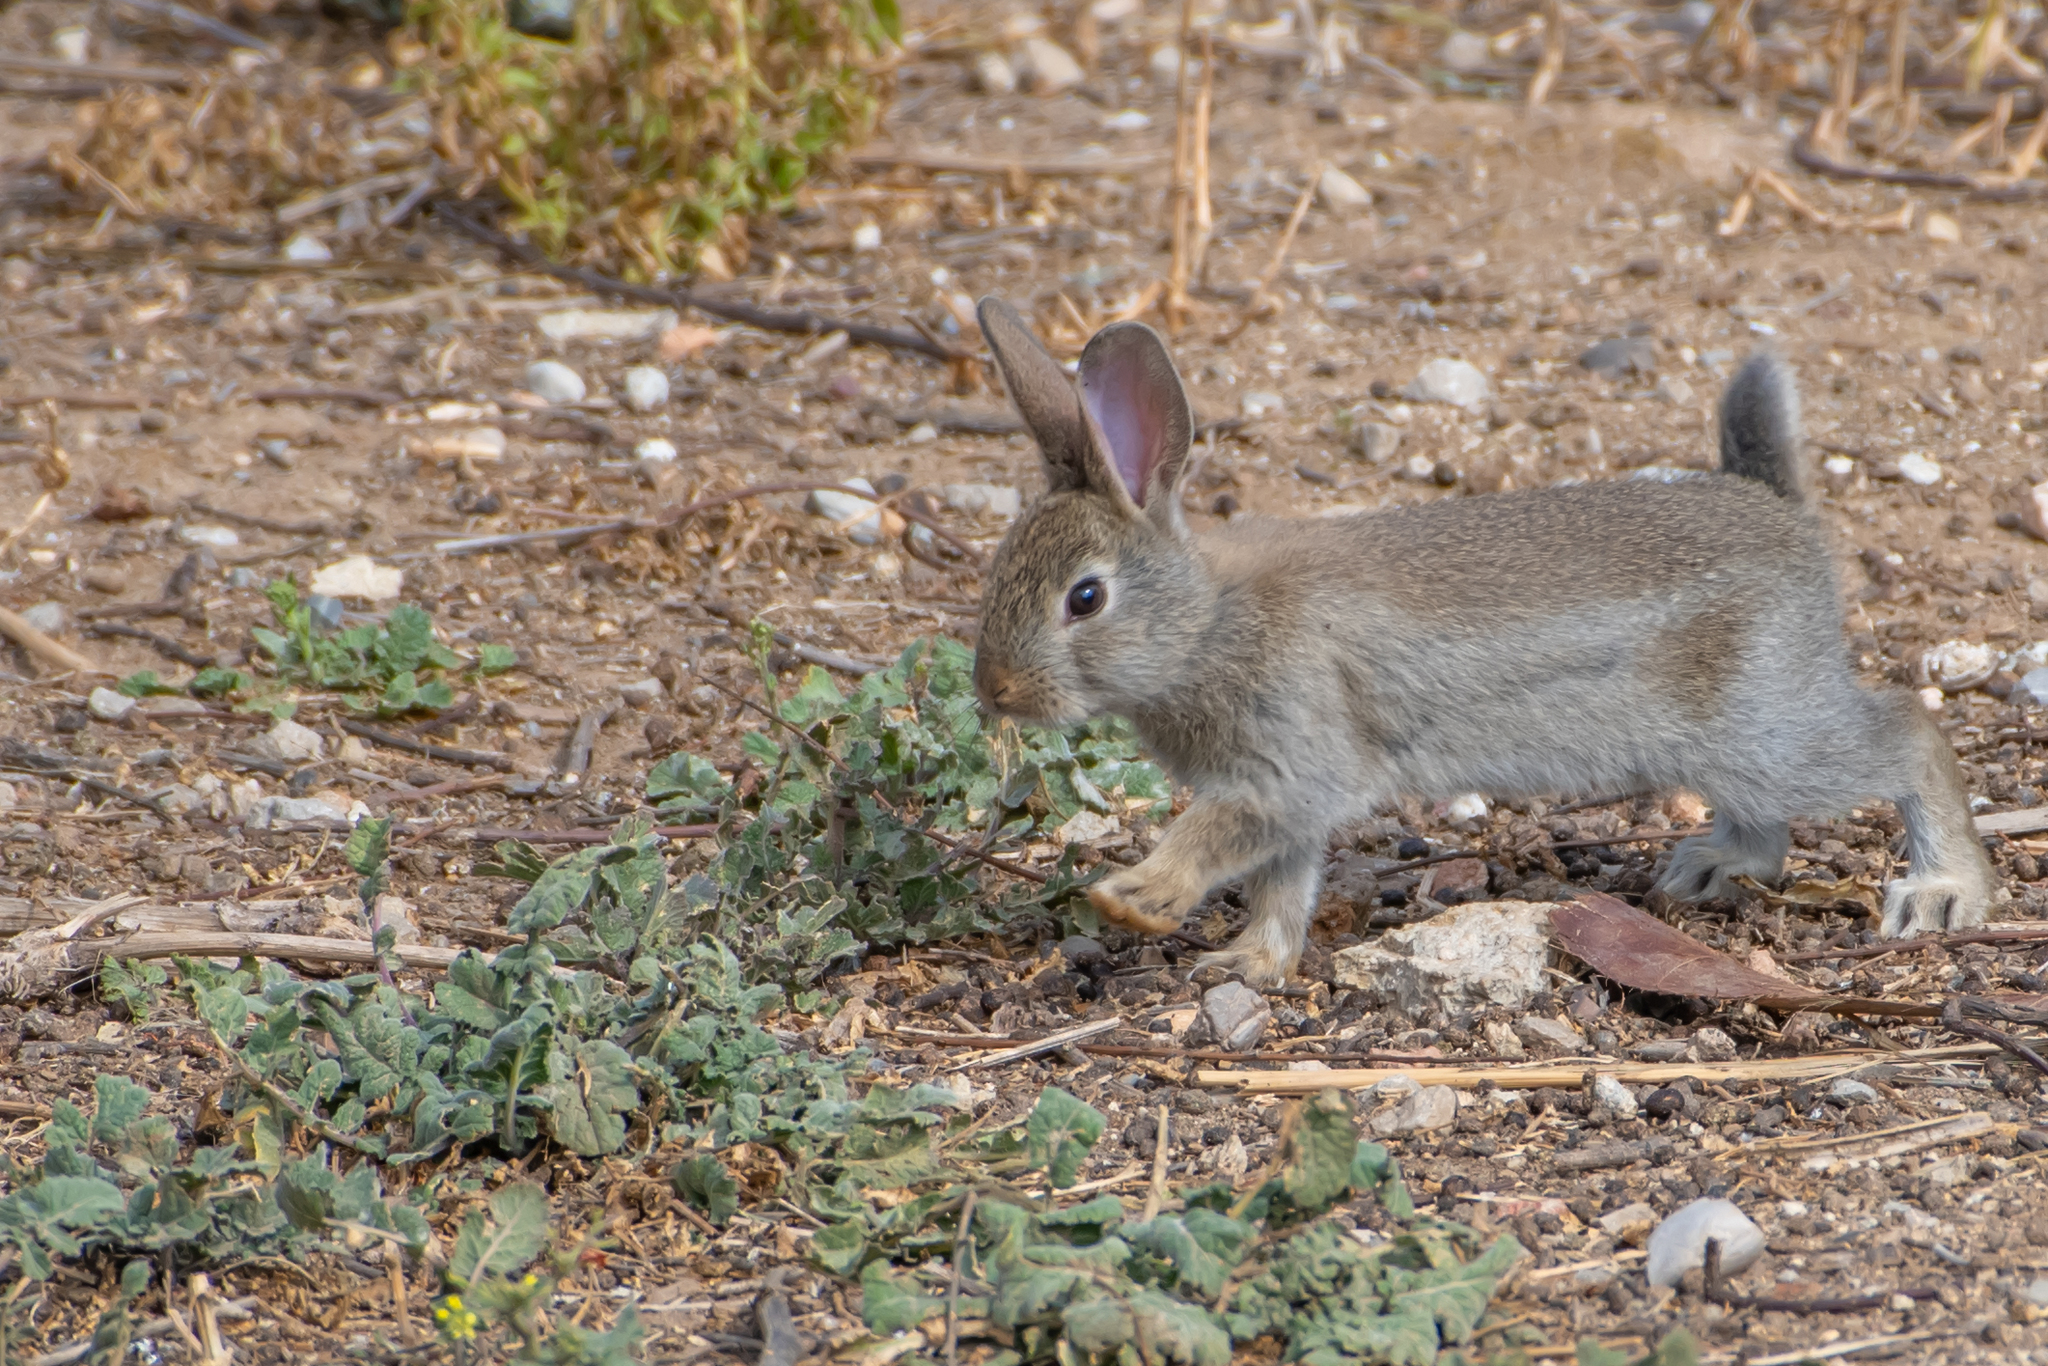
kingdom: Animalia
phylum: Chordata
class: Mammalia
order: Lagomorpha
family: Leporidae
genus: Oryctolagus
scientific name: Oryctolagus cuniculus
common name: European rabbit
